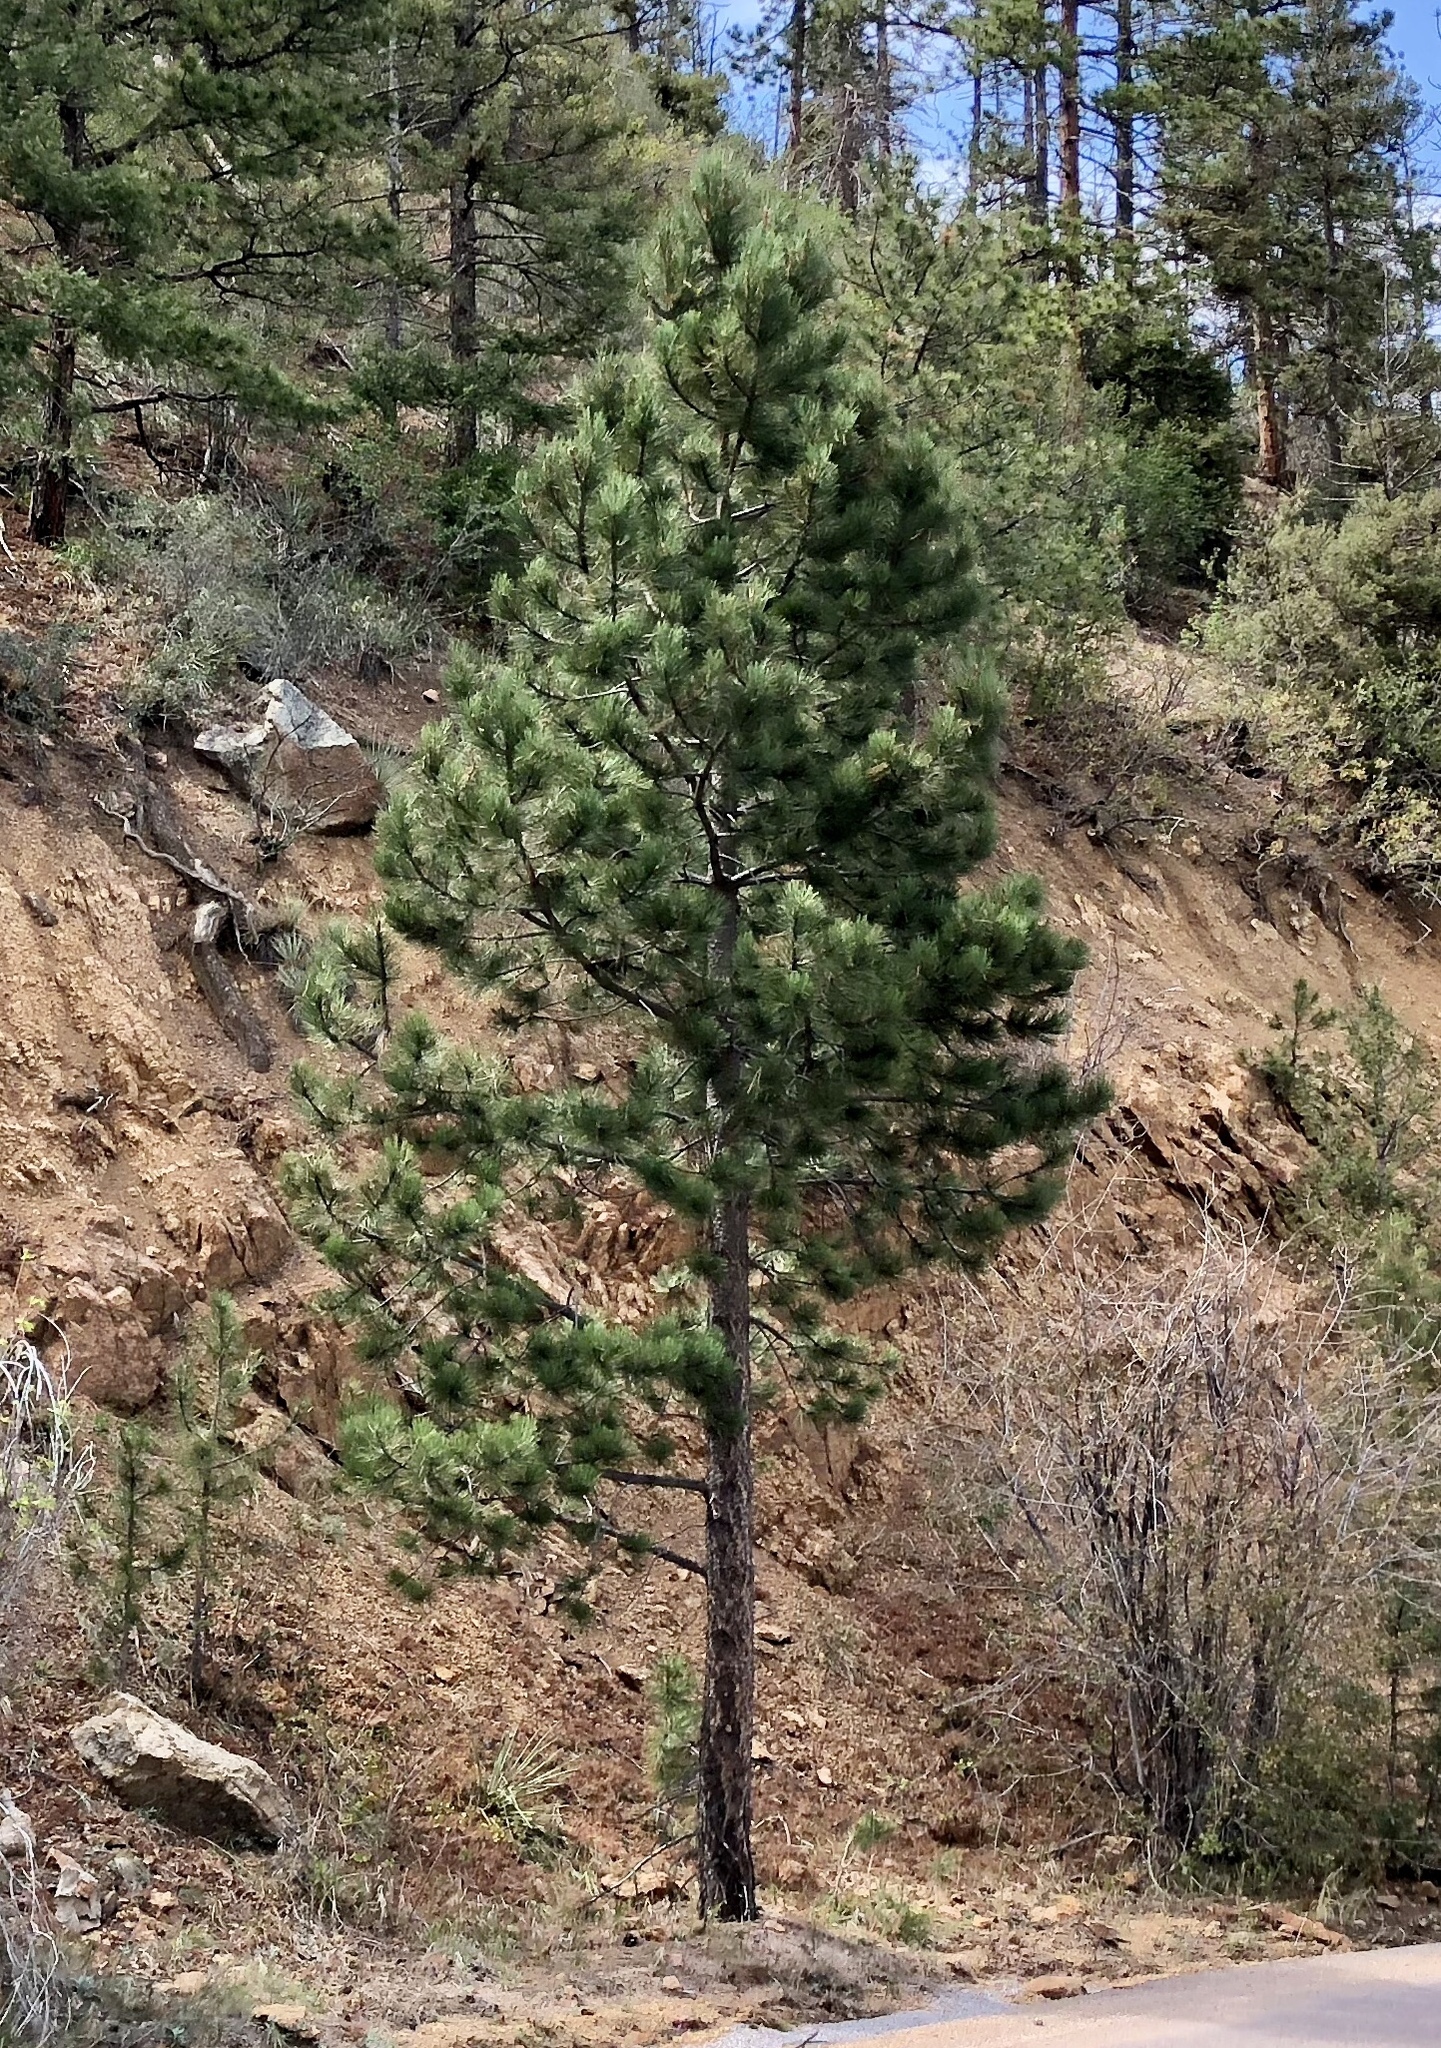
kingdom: Plantae
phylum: Tracheophyta
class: Pinopsida
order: Pinales
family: Pinaceae
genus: Pinus
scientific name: Pinus ponderosa
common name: Western yellow-pine
